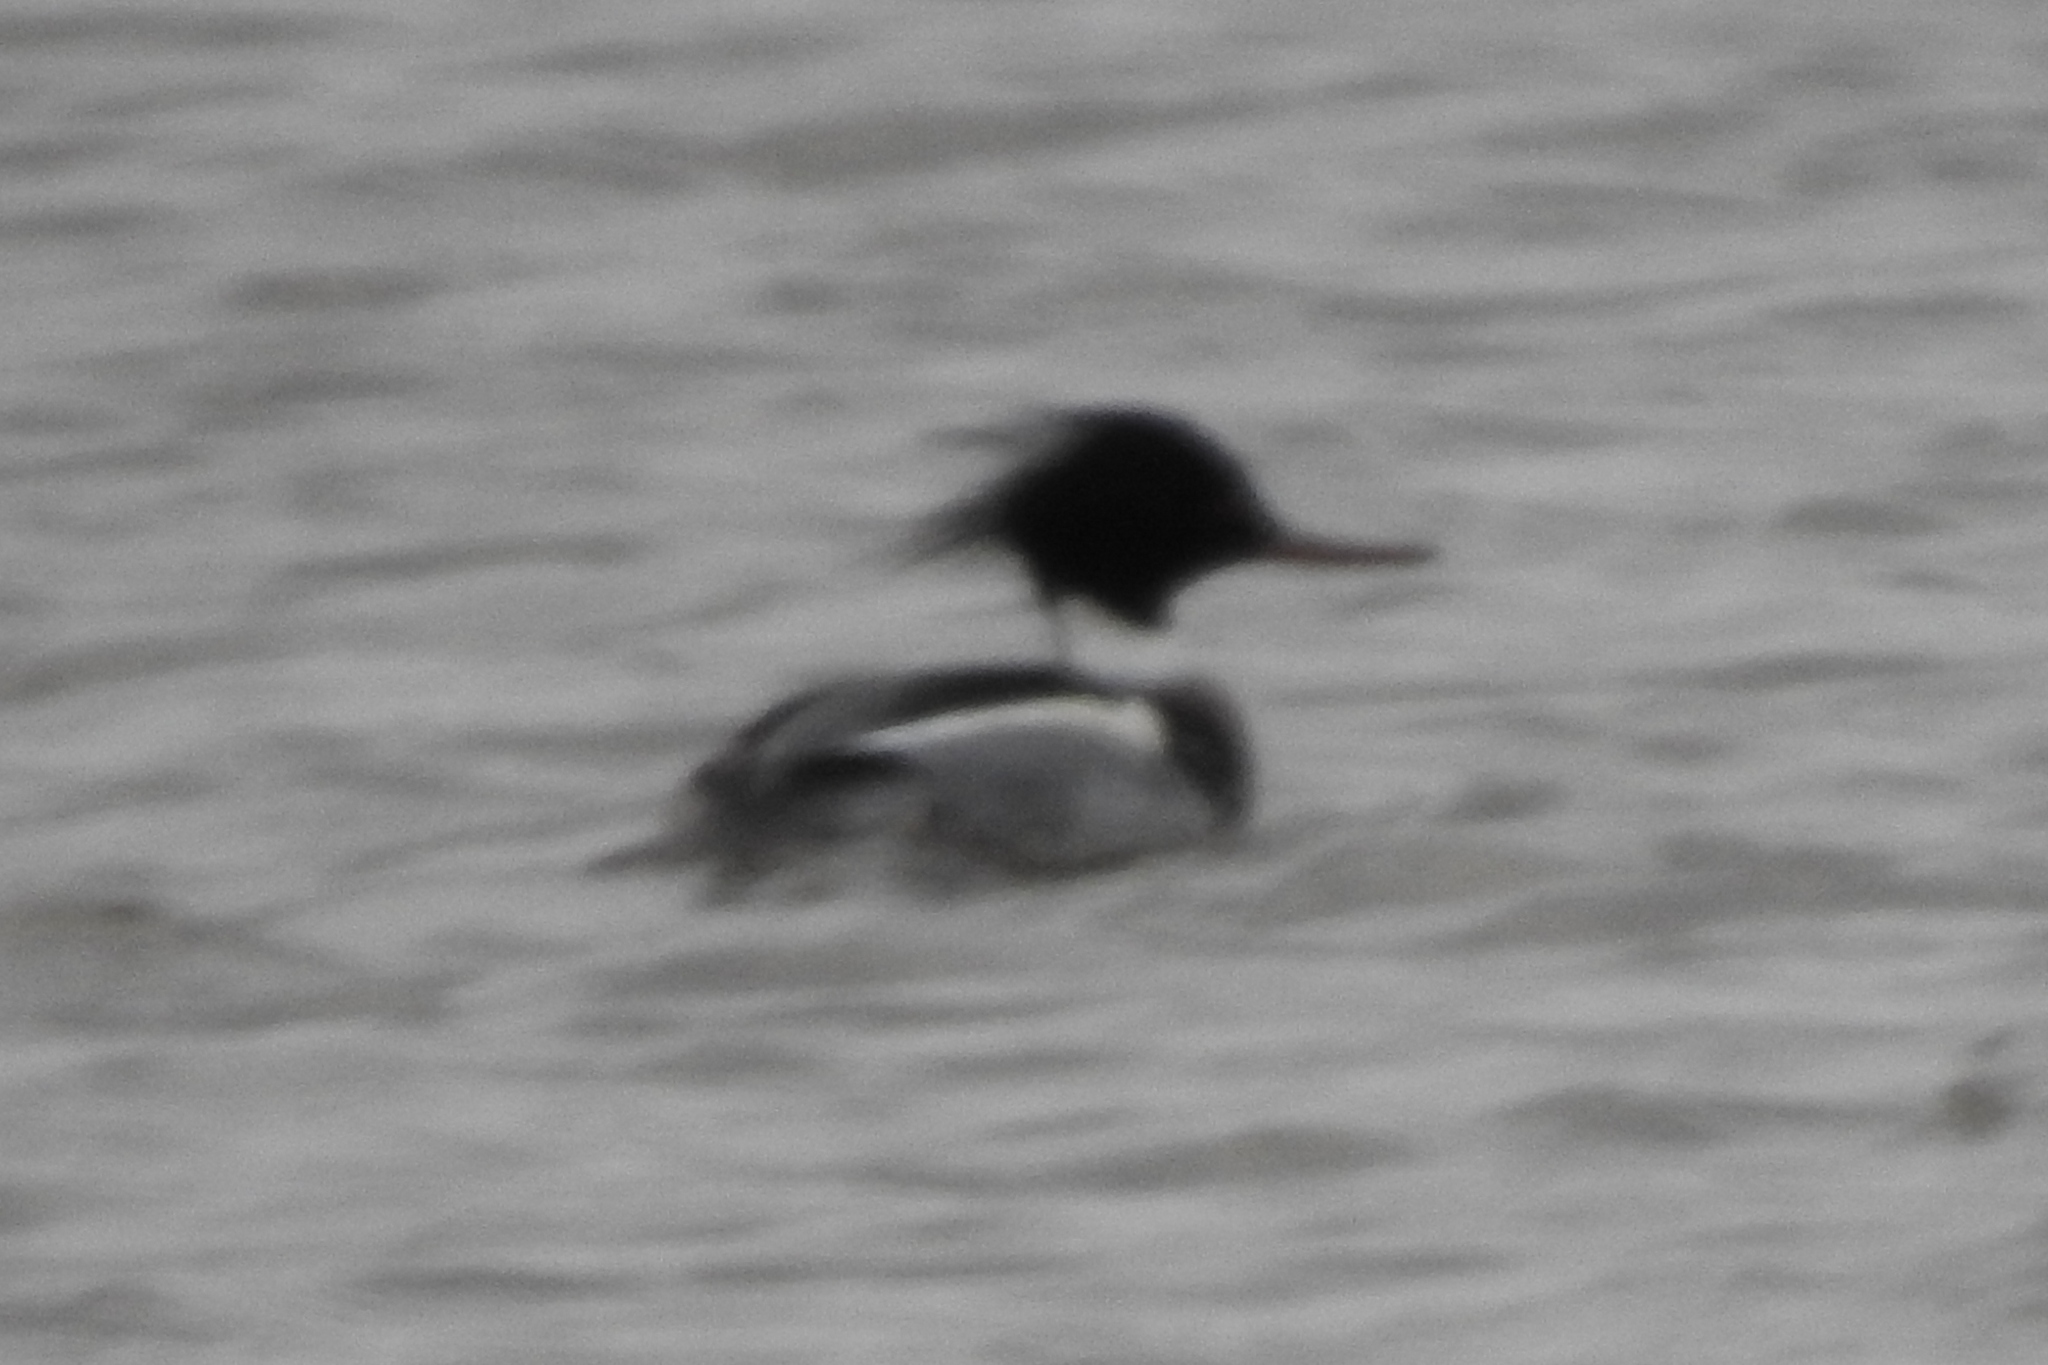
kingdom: Animalia
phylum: Chordata
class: Aves
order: Anseriformes
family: Anatidae
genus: Mergus
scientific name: Mergus serrator
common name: Red-breasted merganser
